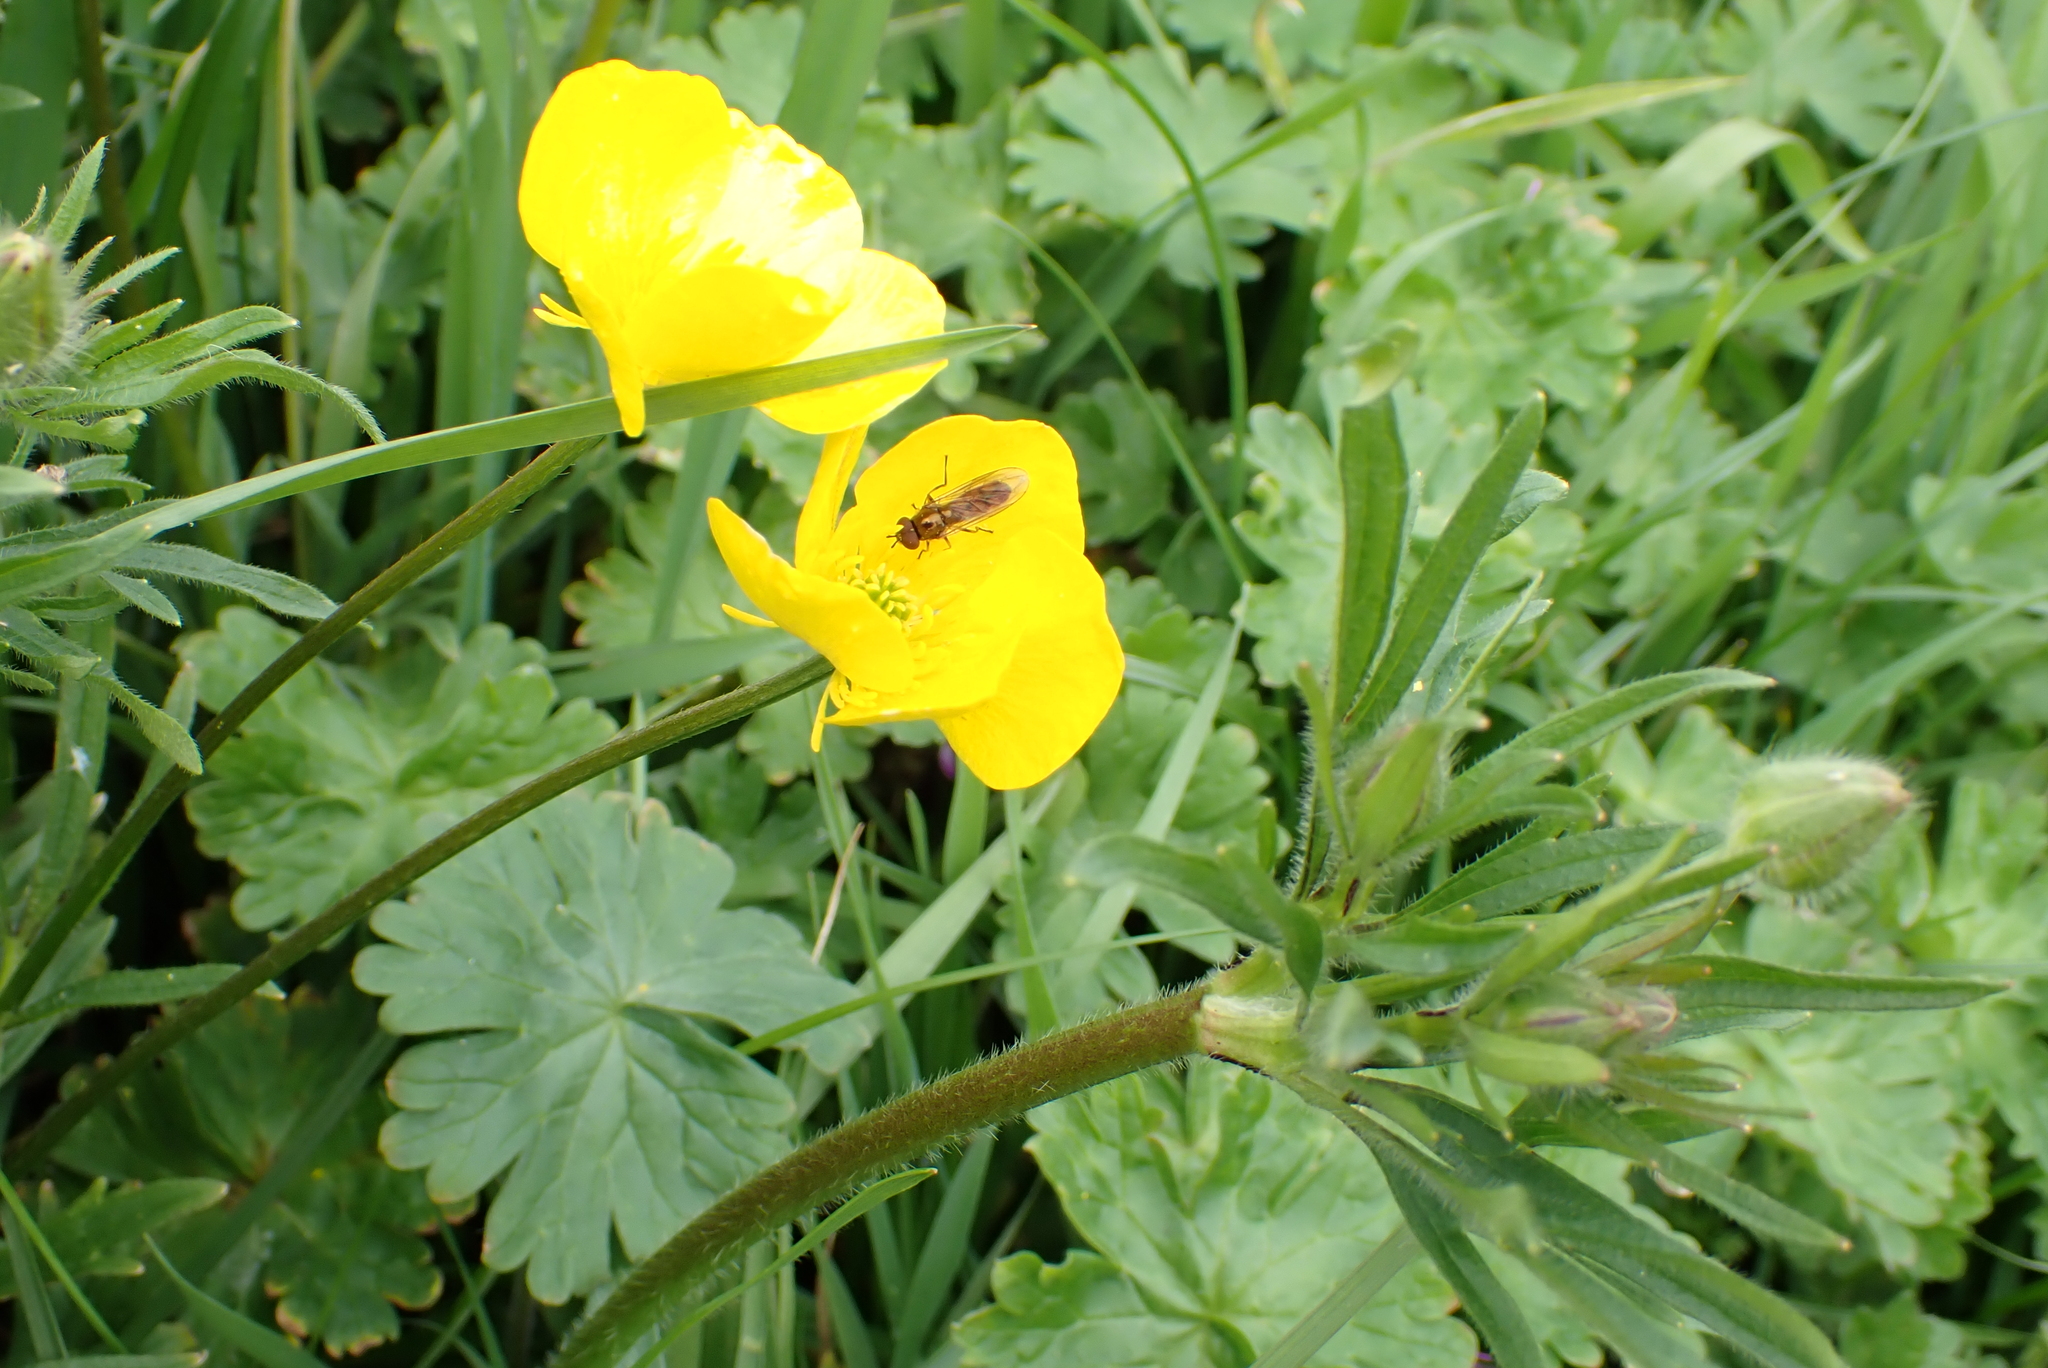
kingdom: Plantae
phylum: Tracheophyta
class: Magnoliopsida
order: Ranunculales
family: Ranunculaceae
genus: Ranunculus
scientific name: Ranunculus bulbosus
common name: Bulbous buttercup
